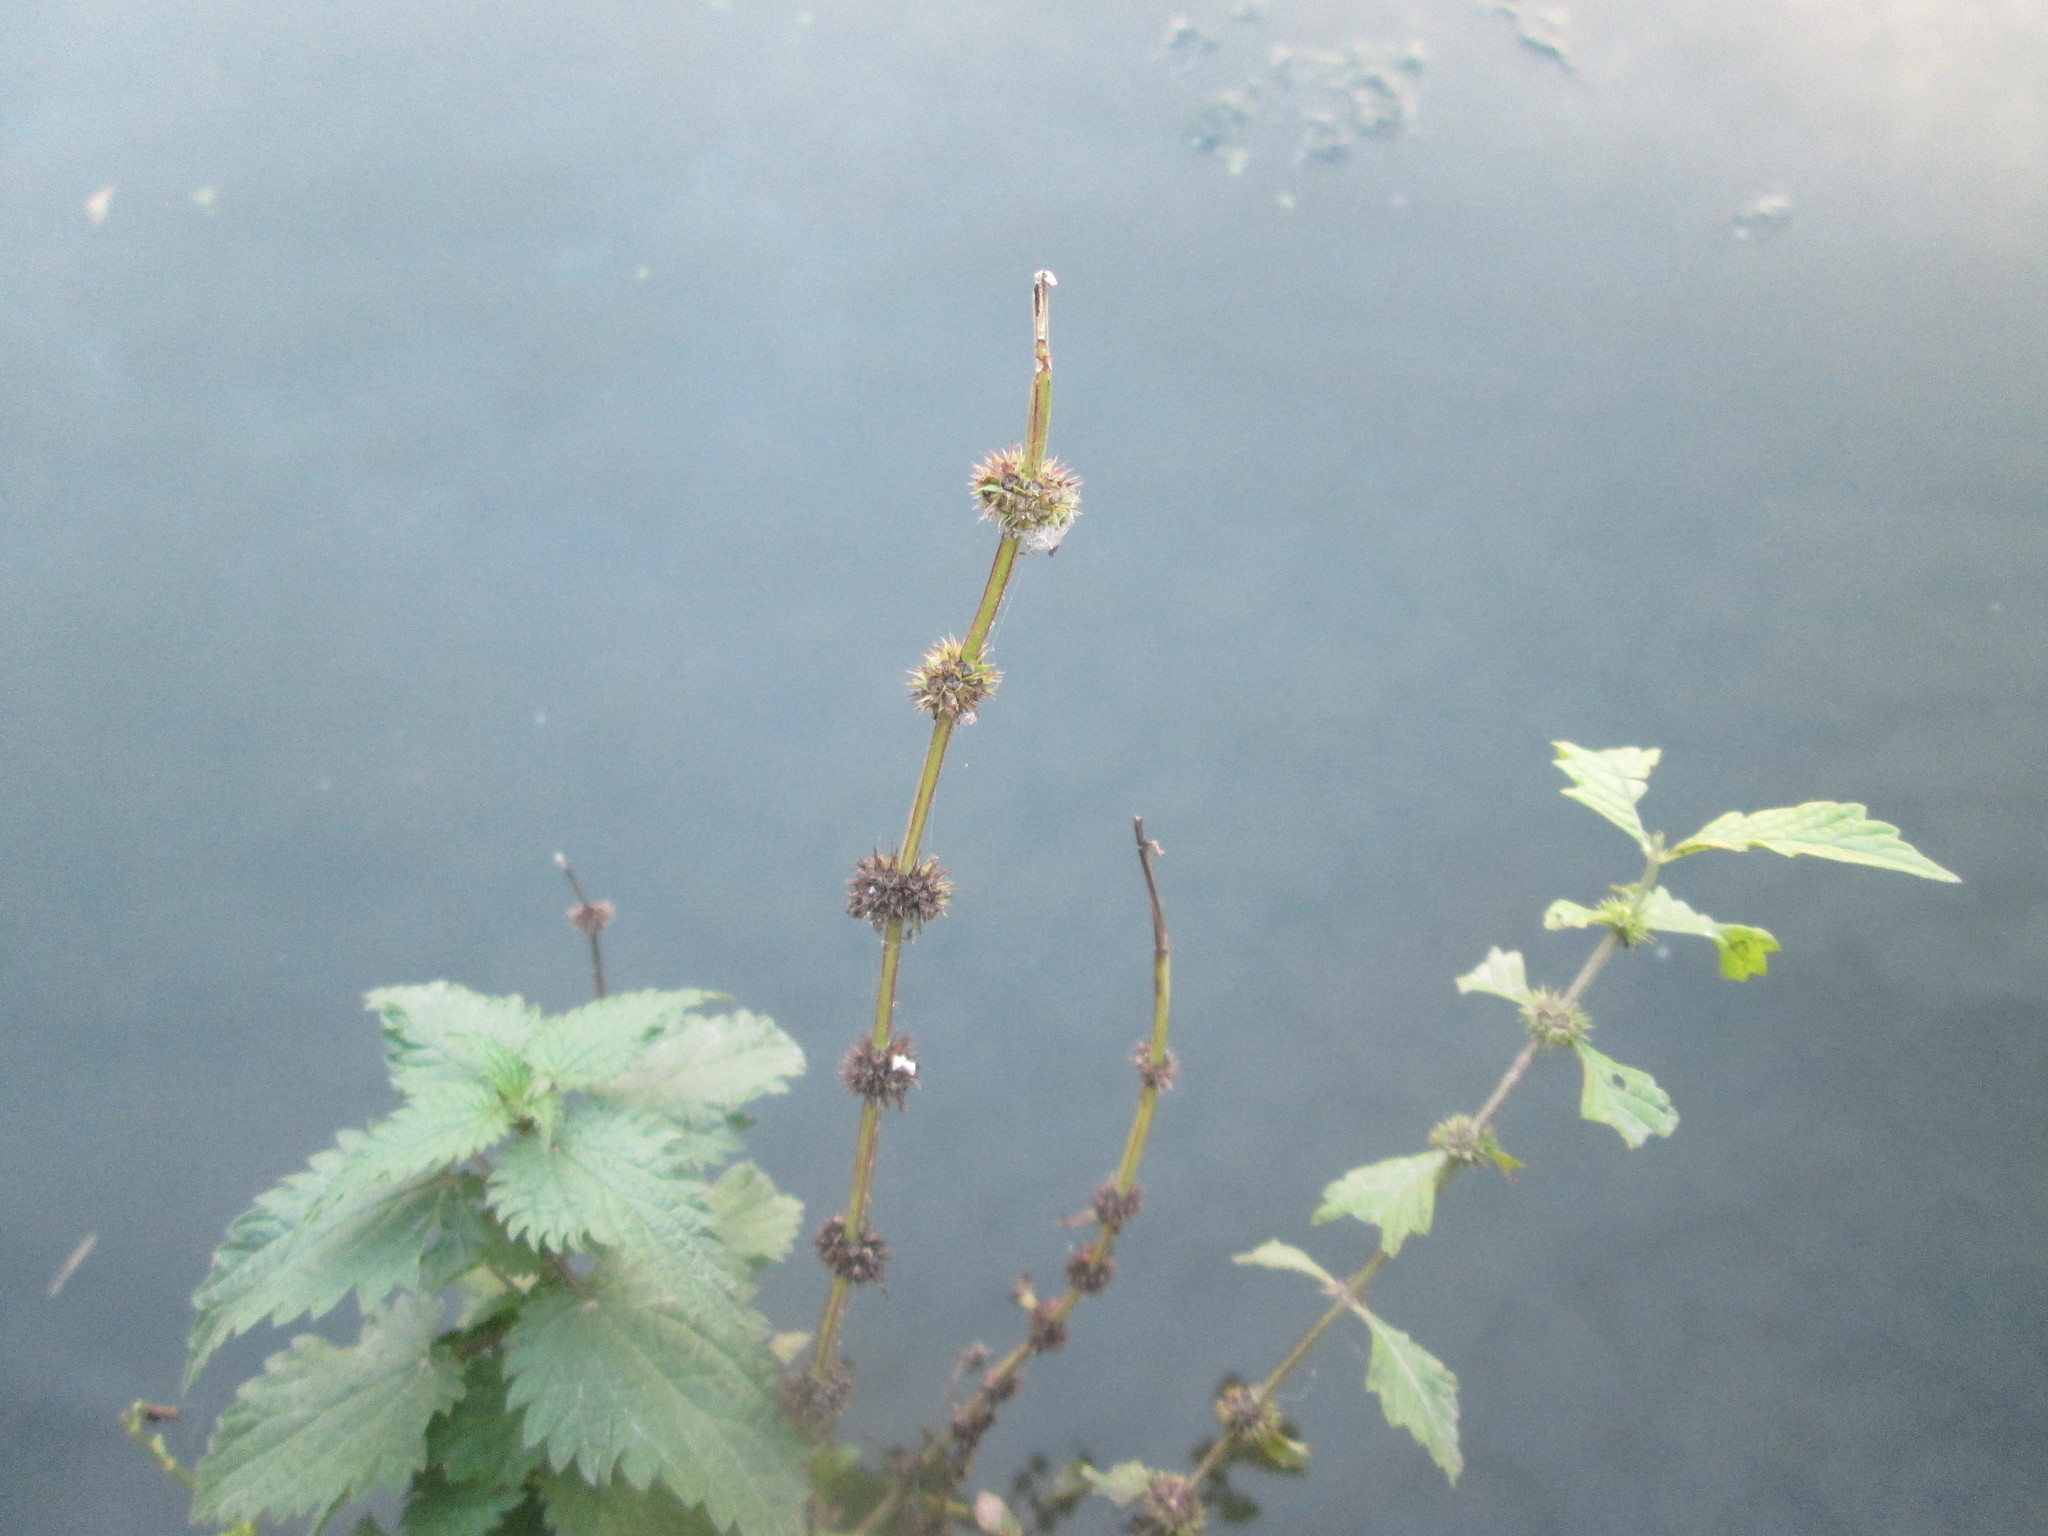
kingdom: Plantae
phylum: Tracheophyta
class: Magnoliopsida
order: Lamiales
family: Lamiaceae
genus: Lycopus
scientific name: Lycopus europaeus
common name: European bugleweed
